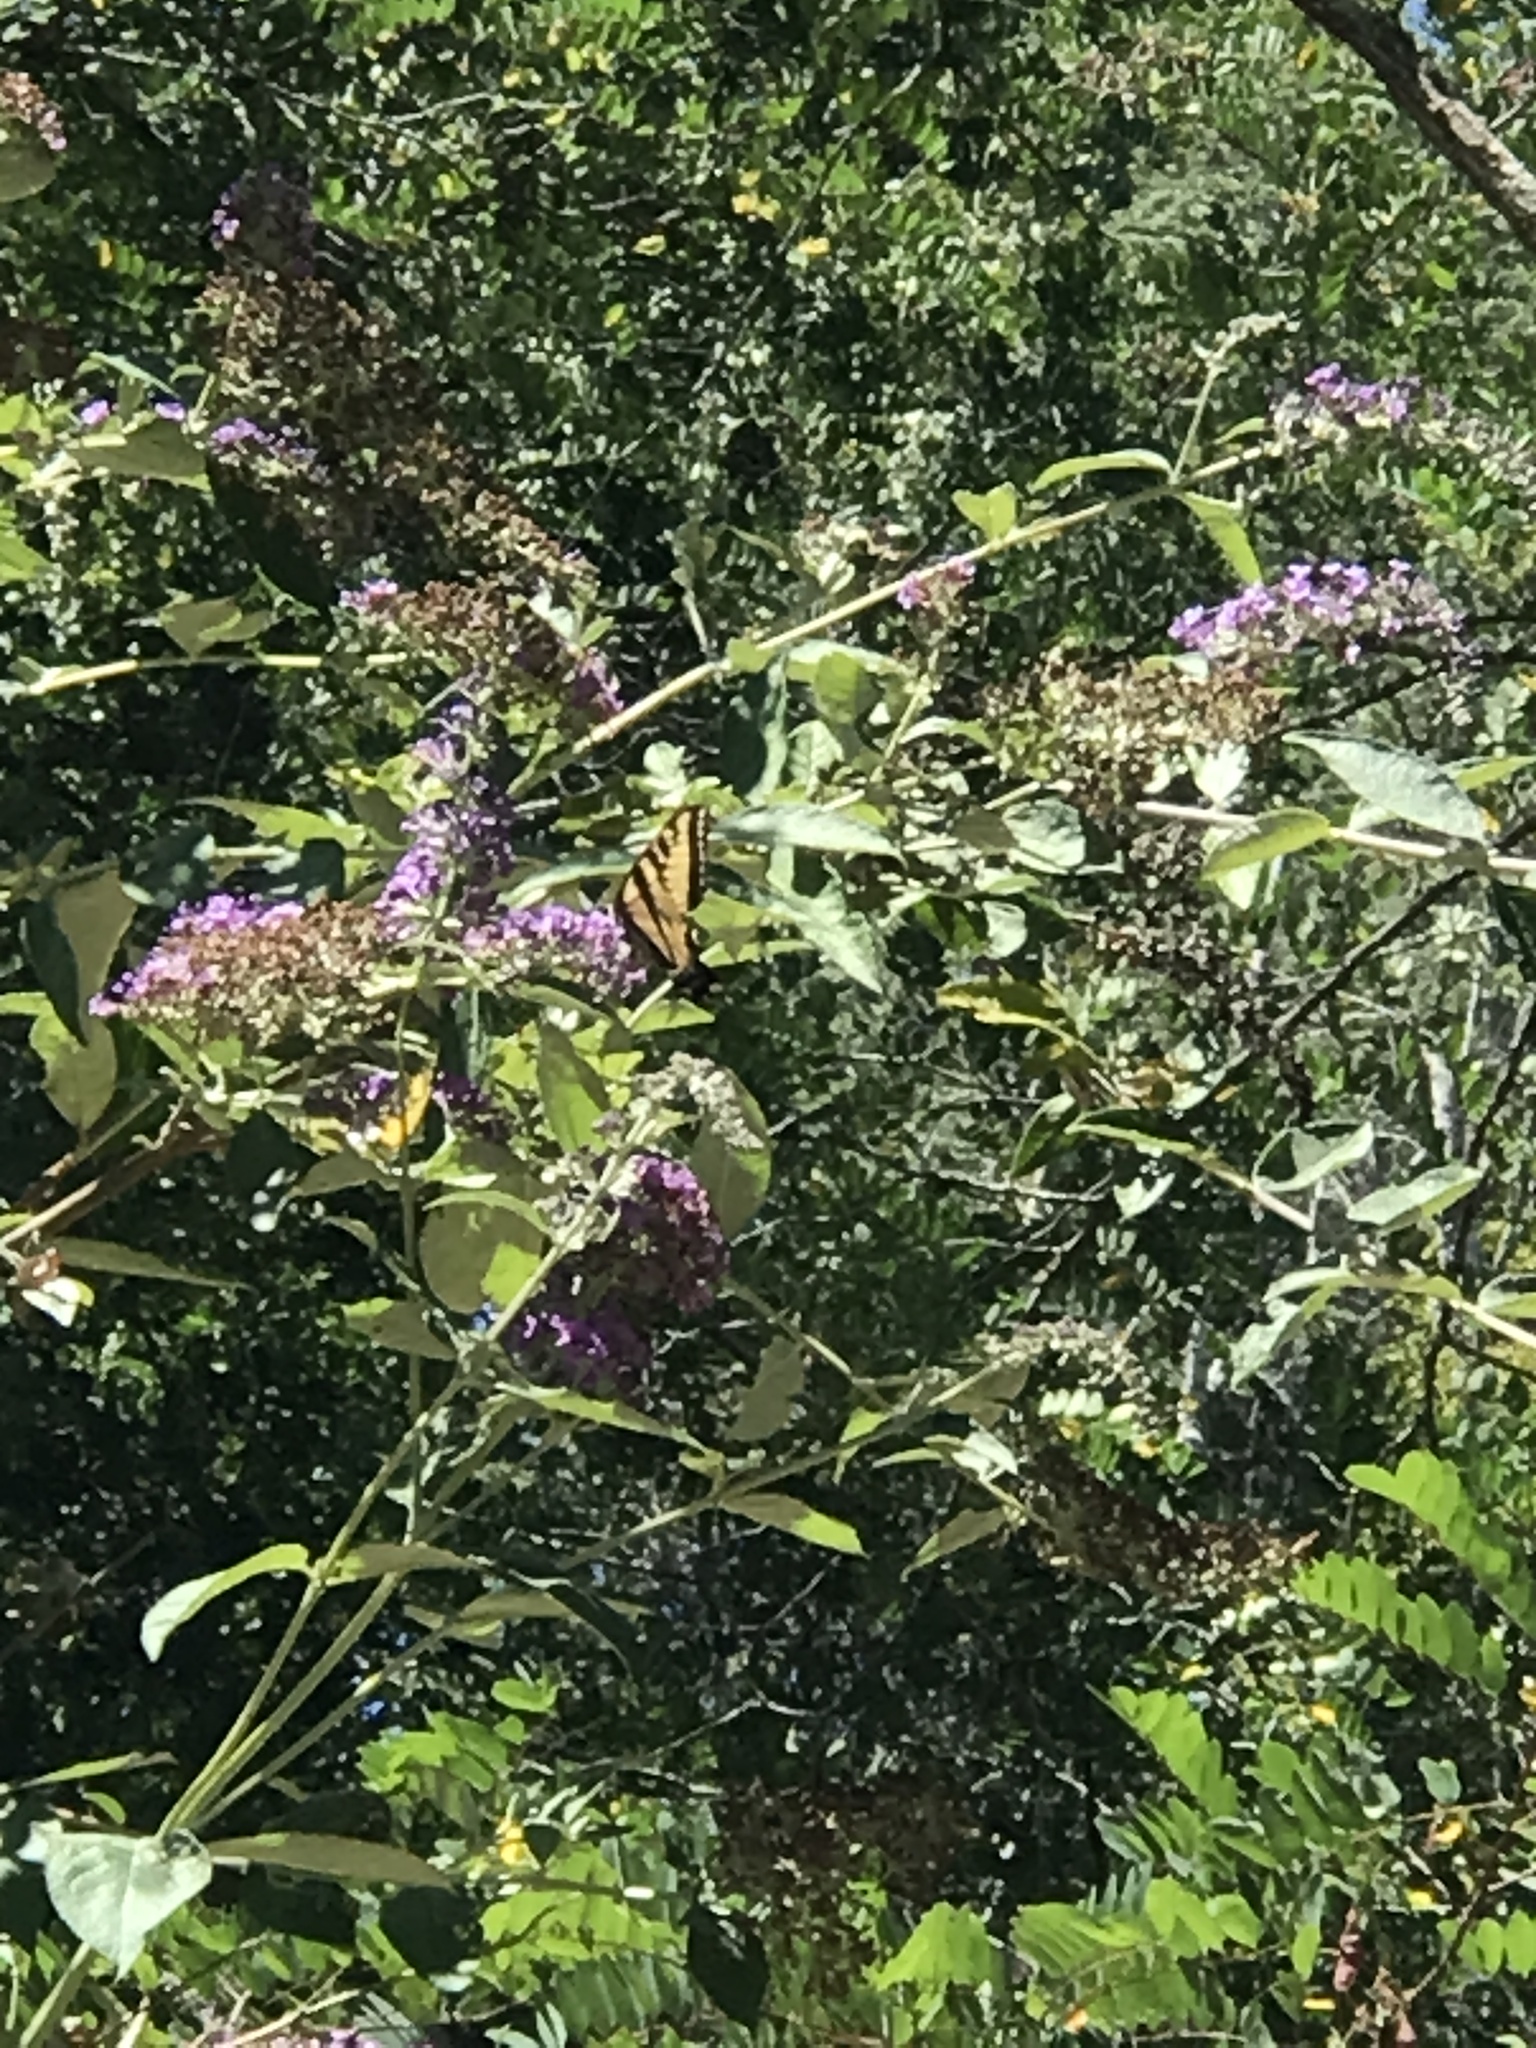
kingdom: Animalia
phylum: Arthropoda
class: Insecta
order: Lepidoptera
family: Papilionidae
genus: Papilio
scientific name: Papilio rutulus
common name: Western tiger swallowtail
